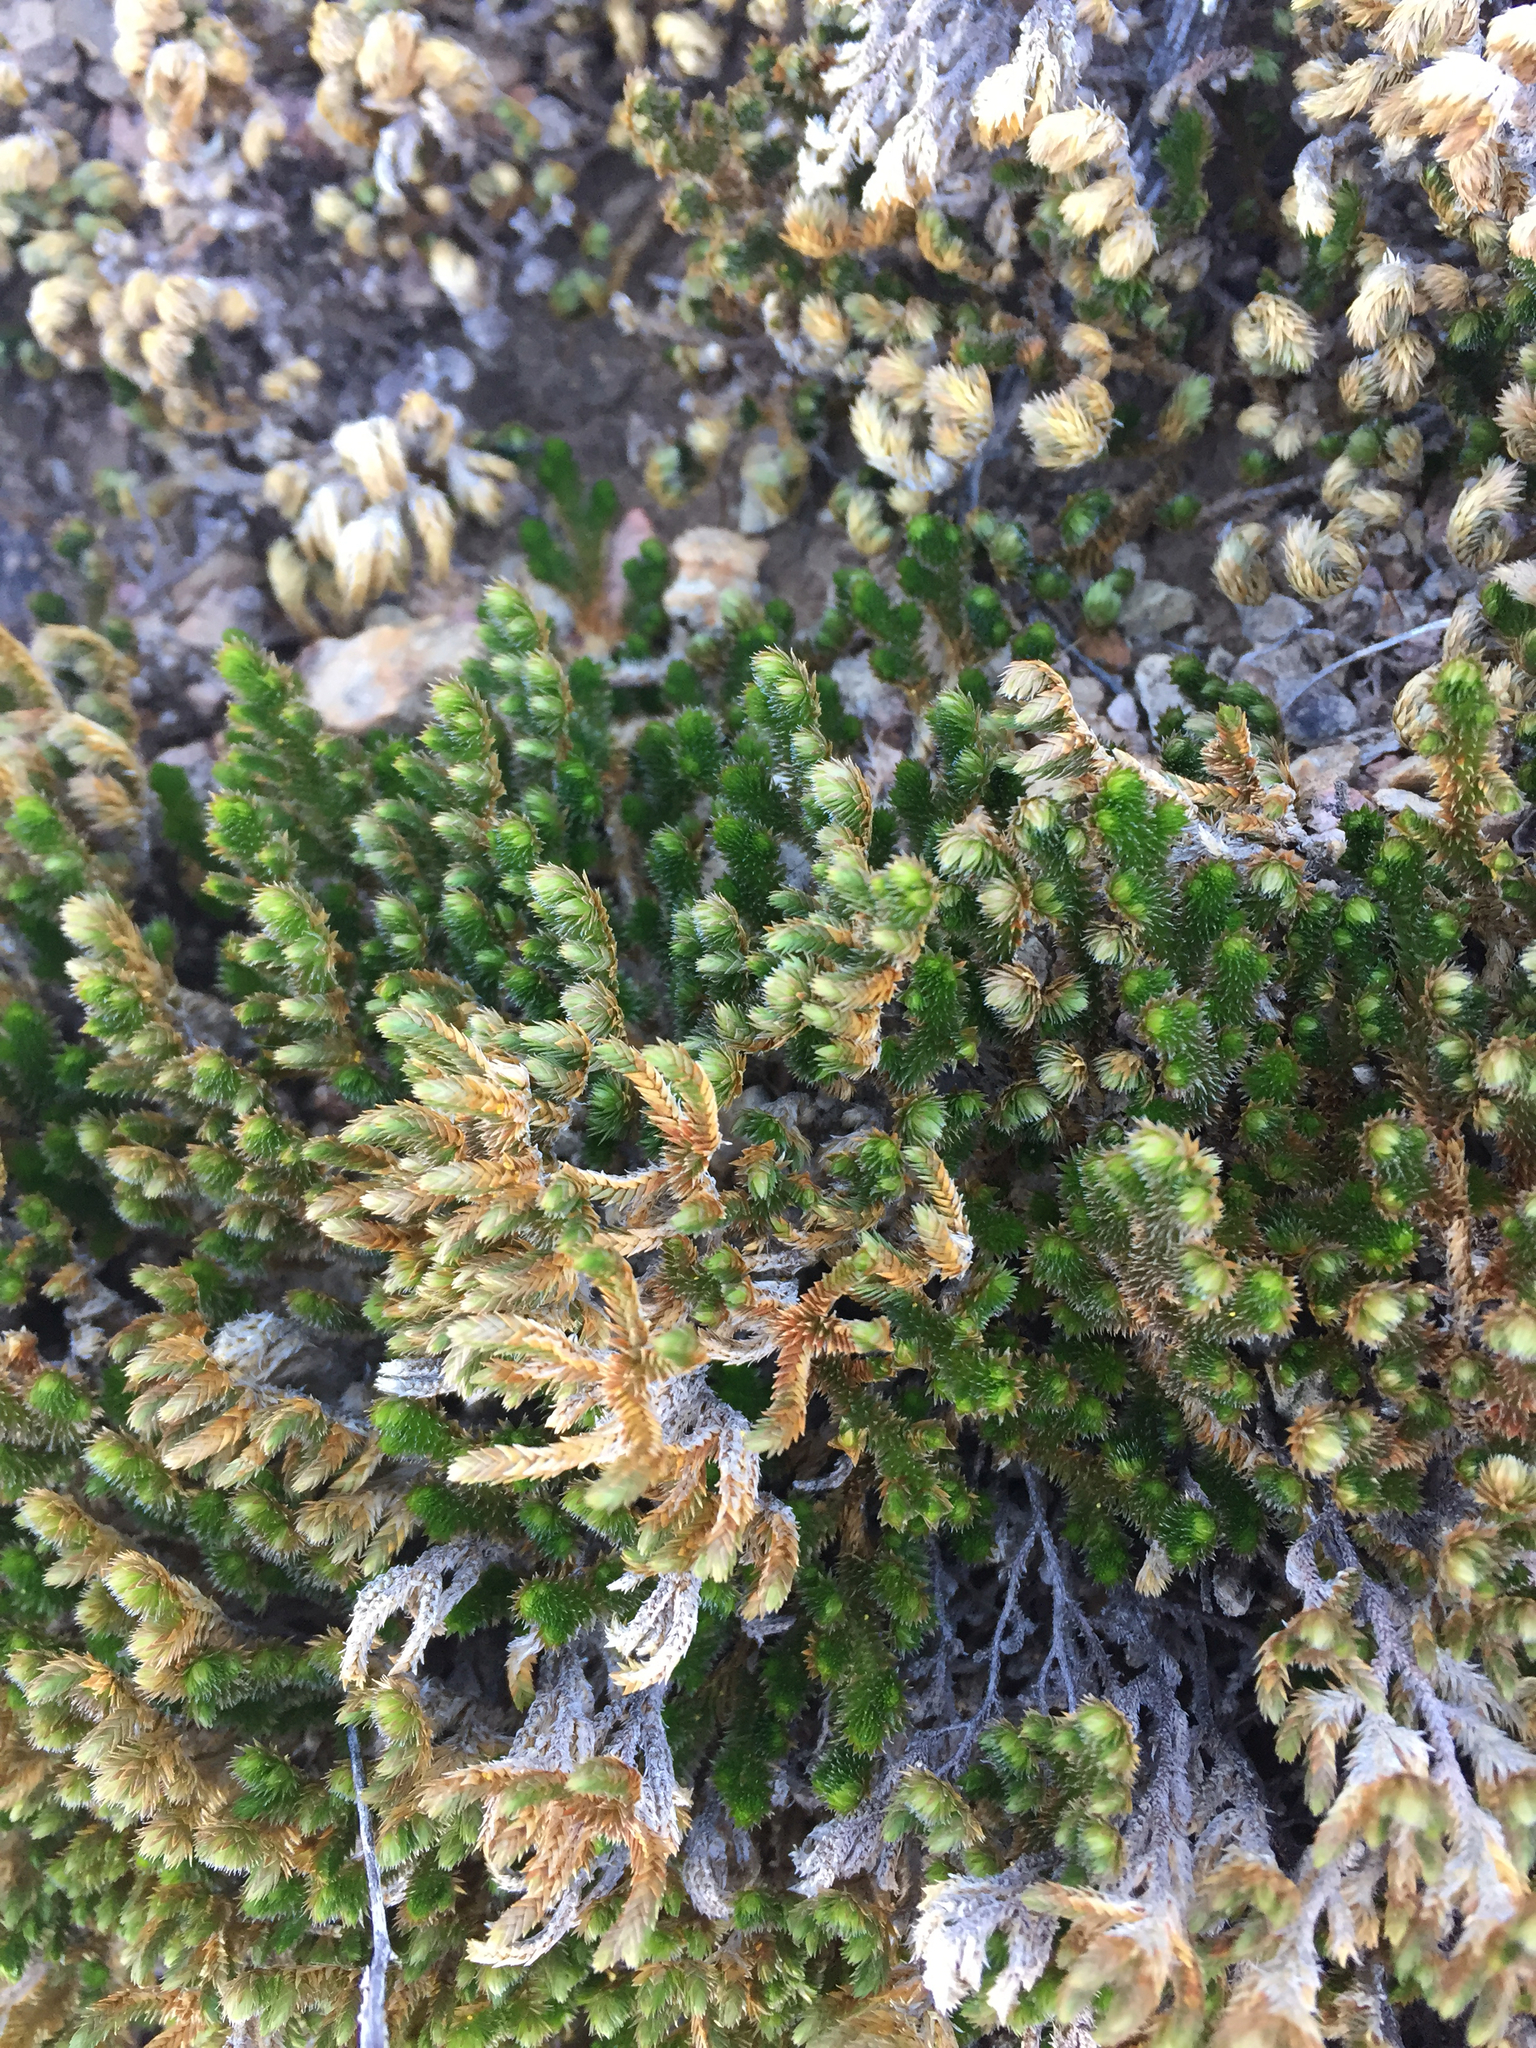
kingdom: Plantae
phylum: Tracheophyta
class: Lycopodiopsida
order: Selaginellales
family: Selaginellaceae
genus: Selaginella
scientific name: Selaginella arizonica
